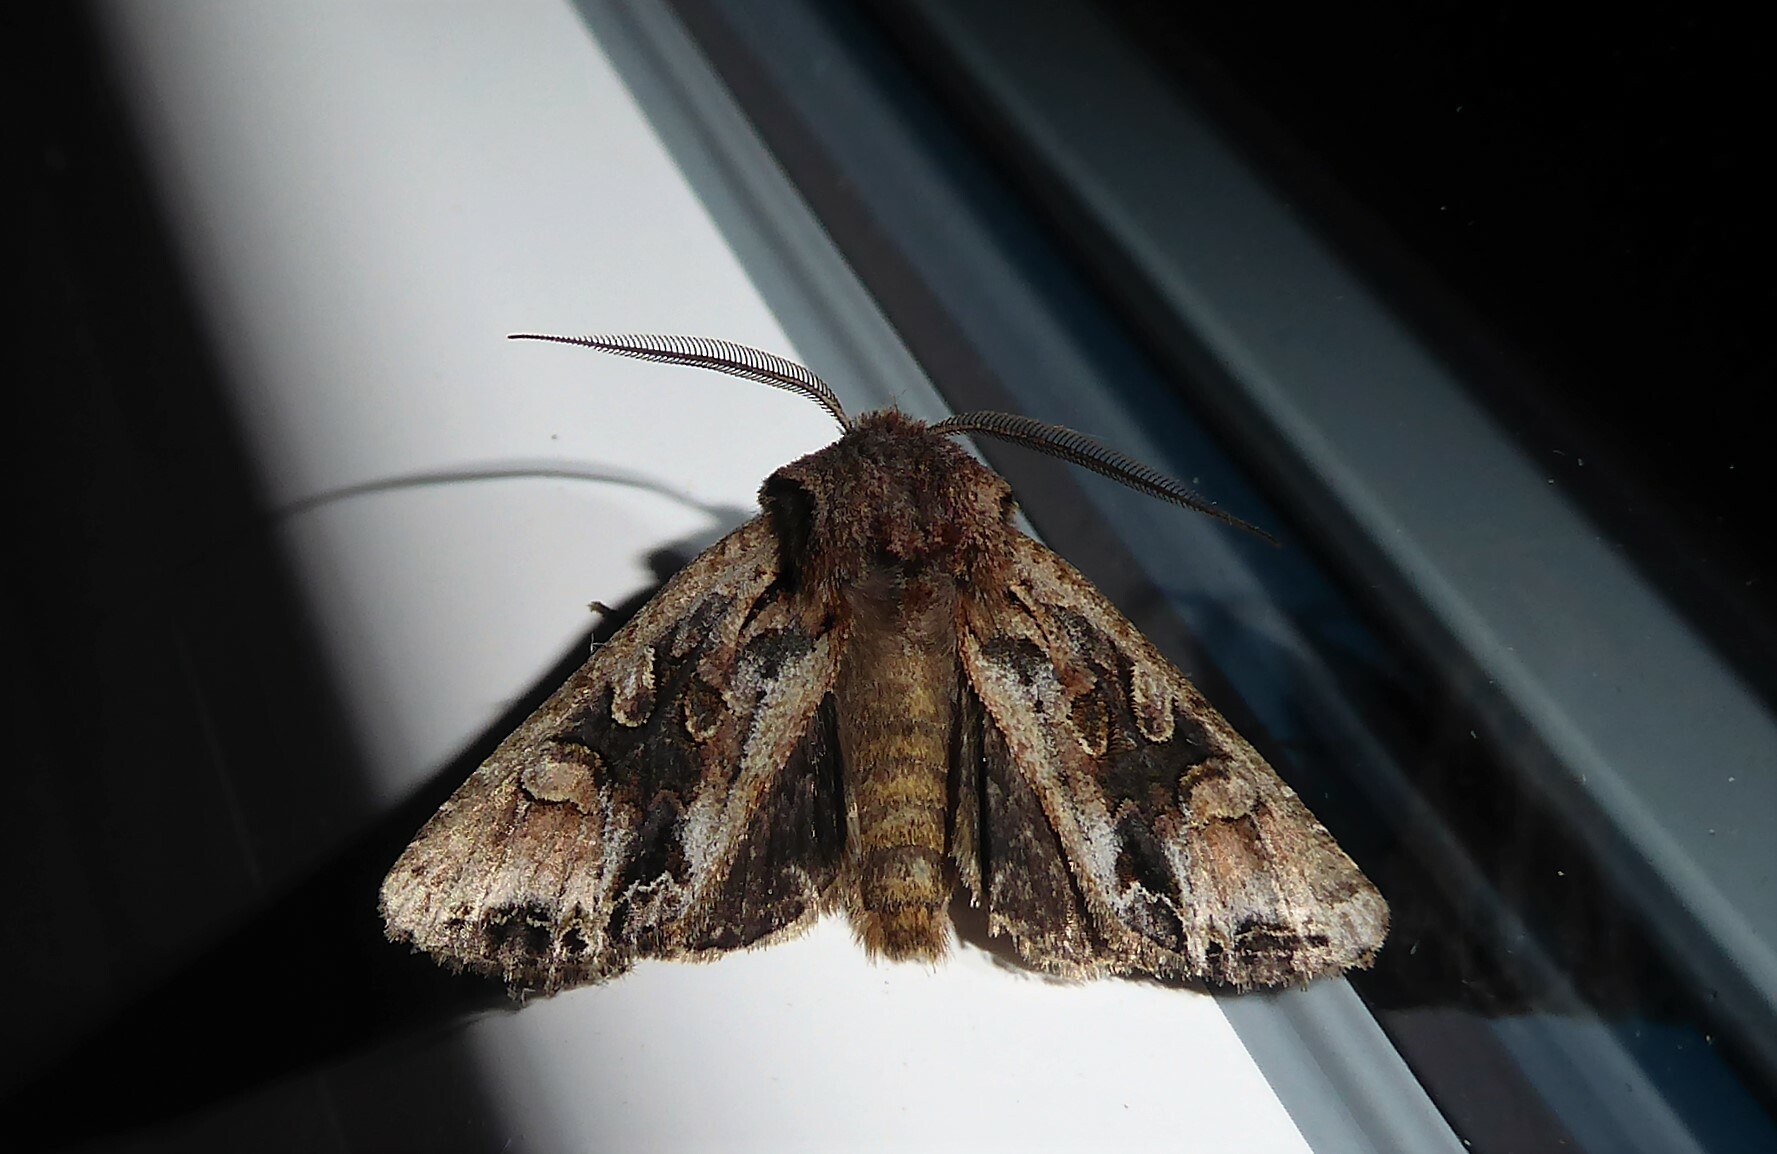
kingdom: Animalia
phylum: Arthropoda
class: Insecta
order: Lepidoptera
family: Noctuidae
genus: Ichneutica
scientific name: Ichneutica
